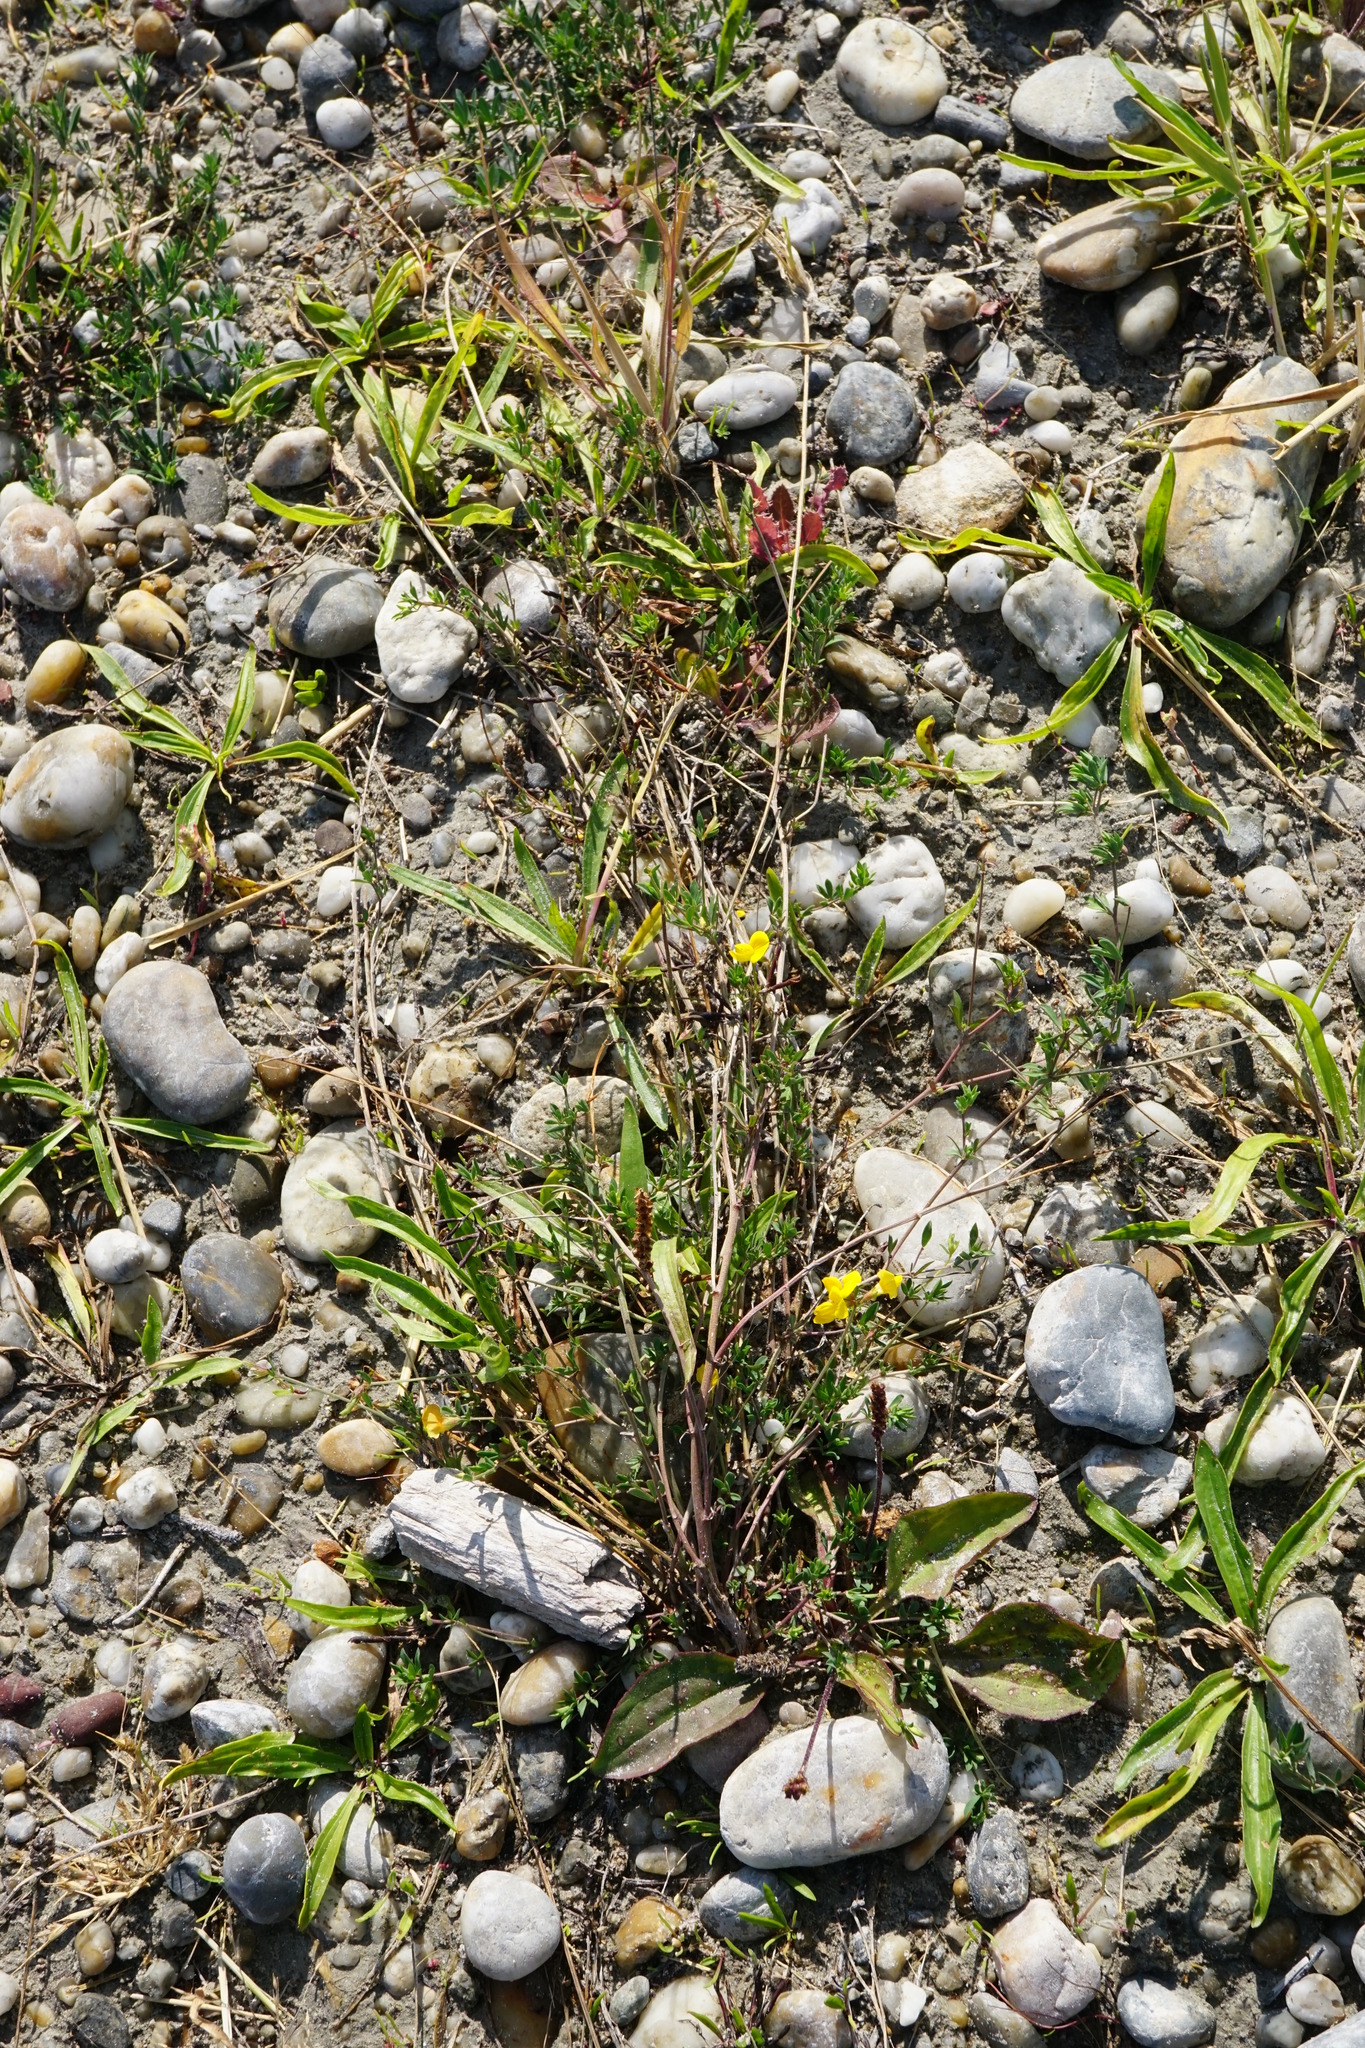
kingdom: Plantae
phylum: Tracheophyta
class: Magnoliopsida
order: Fabales
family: Fabaceae
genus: Lotus
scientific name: Lotus tenuis
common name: Narrow-leaved bird's-foot-trefoil
